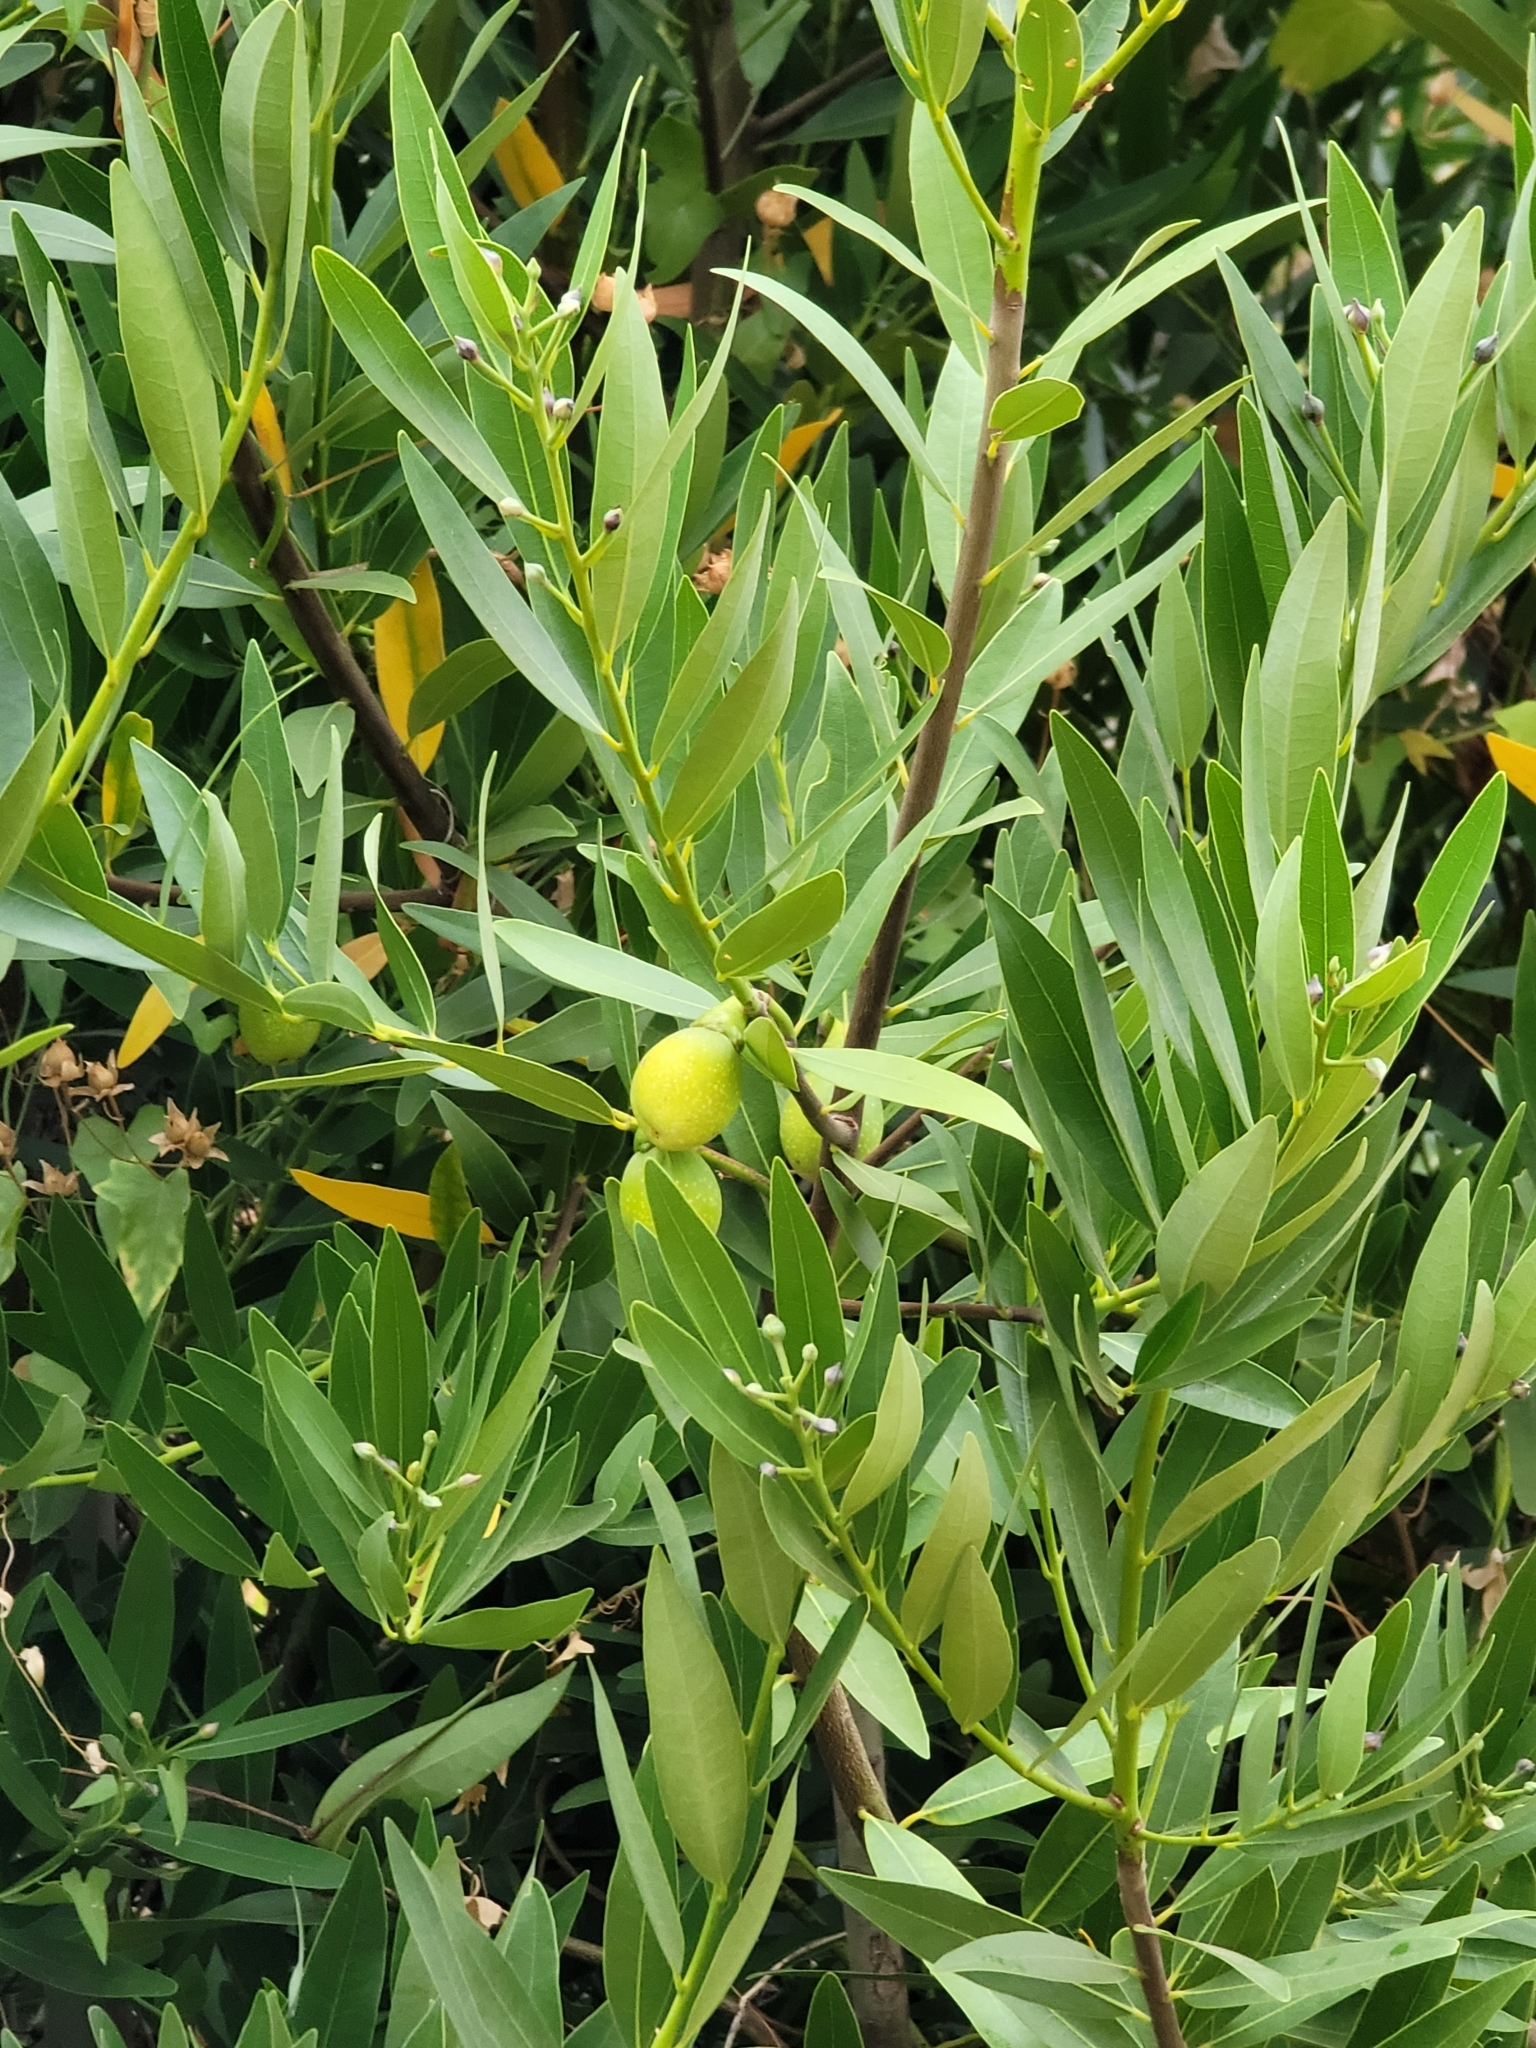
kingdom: Plantae
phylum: Tracheophyta
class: Magnoliopsida
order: Laurales
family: Lauraceae
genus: Umbellularia
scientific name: Umbellularia californica
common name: California bay
